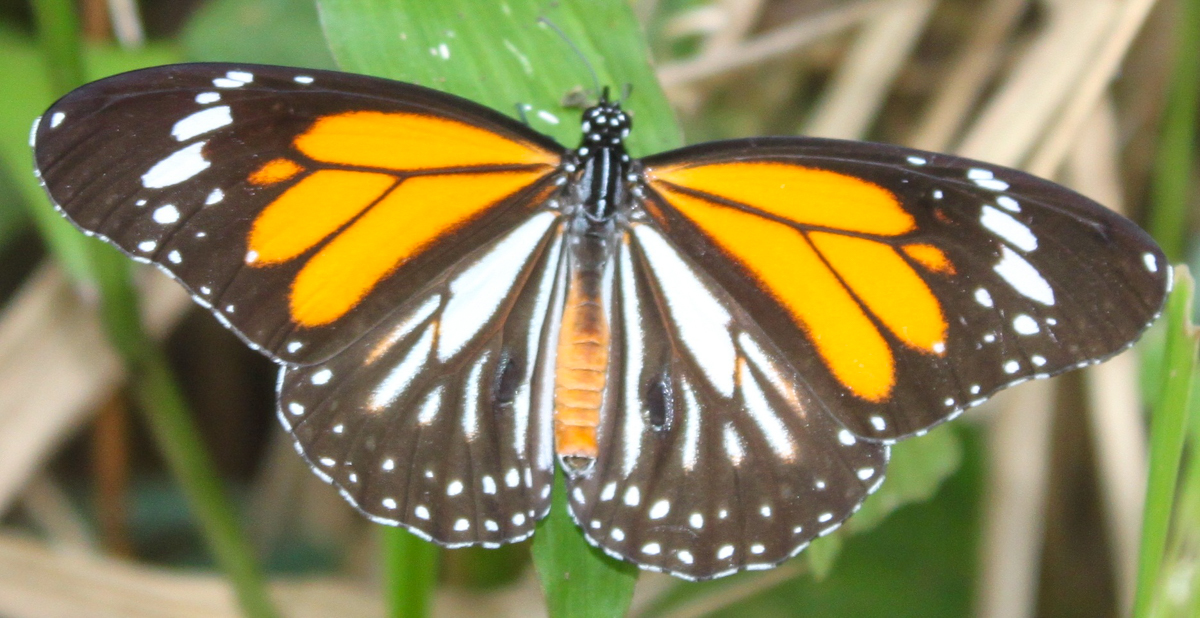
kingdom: Animalia
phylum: Arthropoda
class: Insecta
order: Lepidoptera
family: Nymphalidae
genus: Danaus
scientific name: Danaus melanippus
